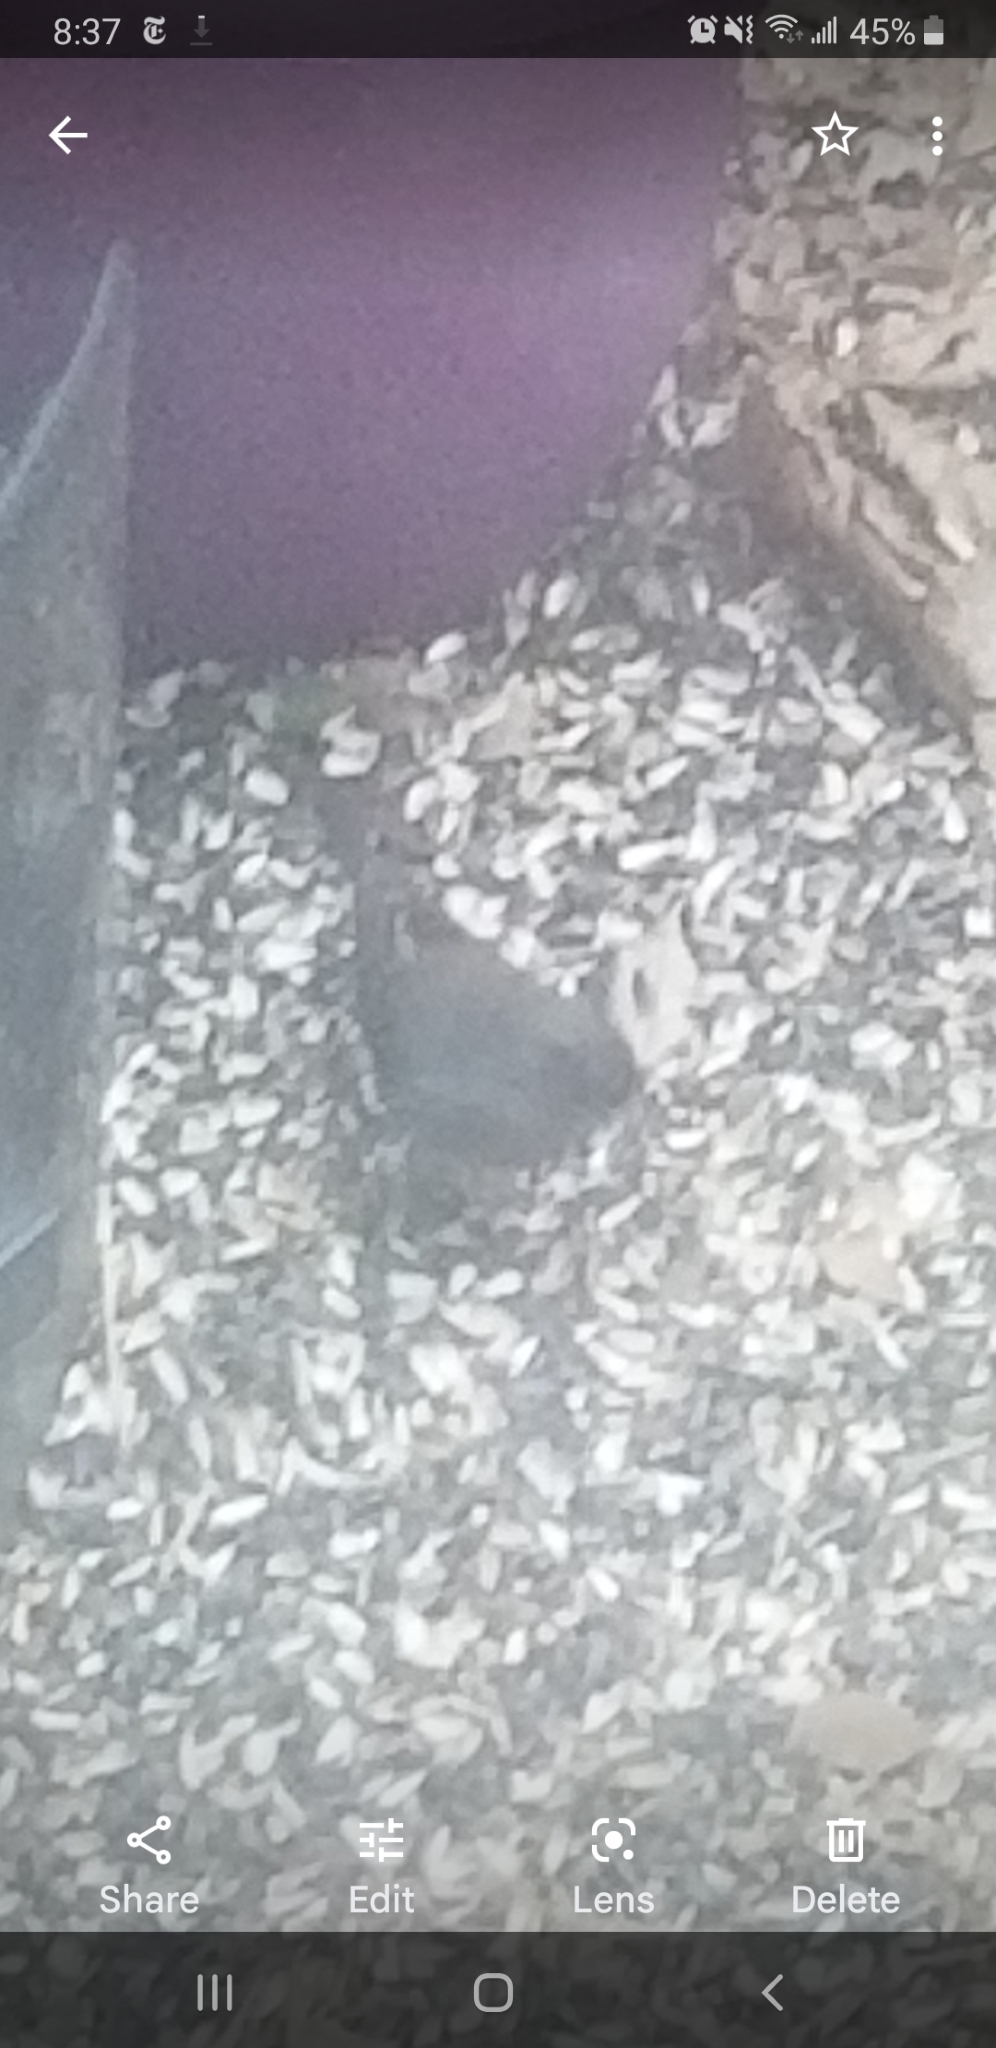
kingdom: Animalia
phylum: Chordata
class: Aves
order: Passeriformes
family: Passerellidae
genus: Junco
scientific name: Junco hyemalis
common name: Dark-eyed junco
